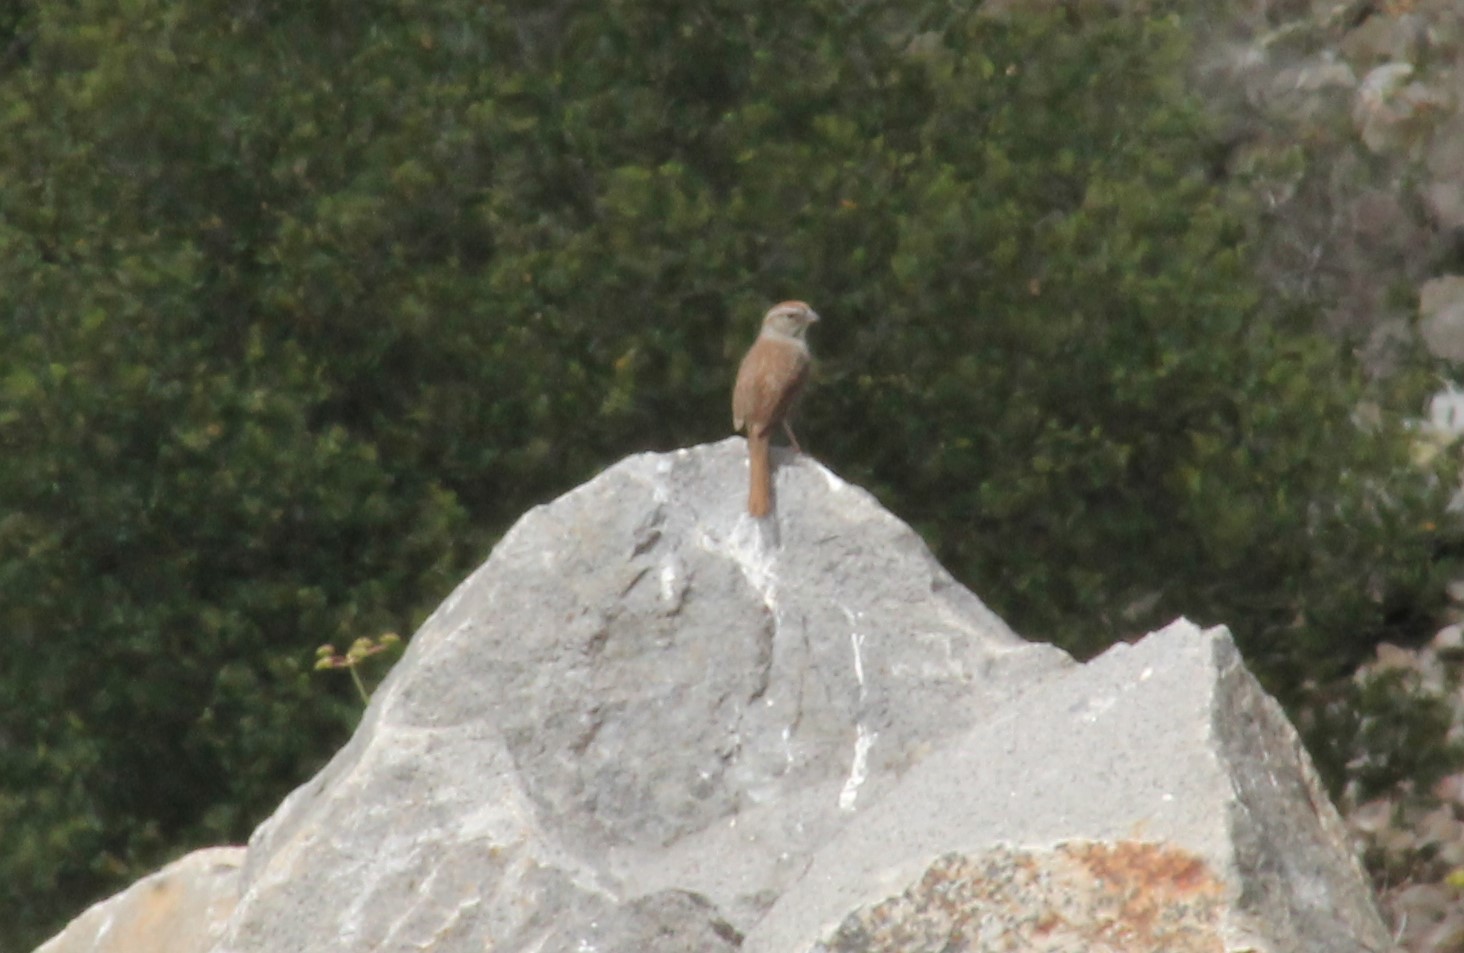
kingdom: Animalia
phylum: Chordata
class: Aves
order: Passeriformes
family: Passerellidae
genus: Aimophila
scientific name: Aimophila ruficeps
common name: Rufous-crowned sparrow
